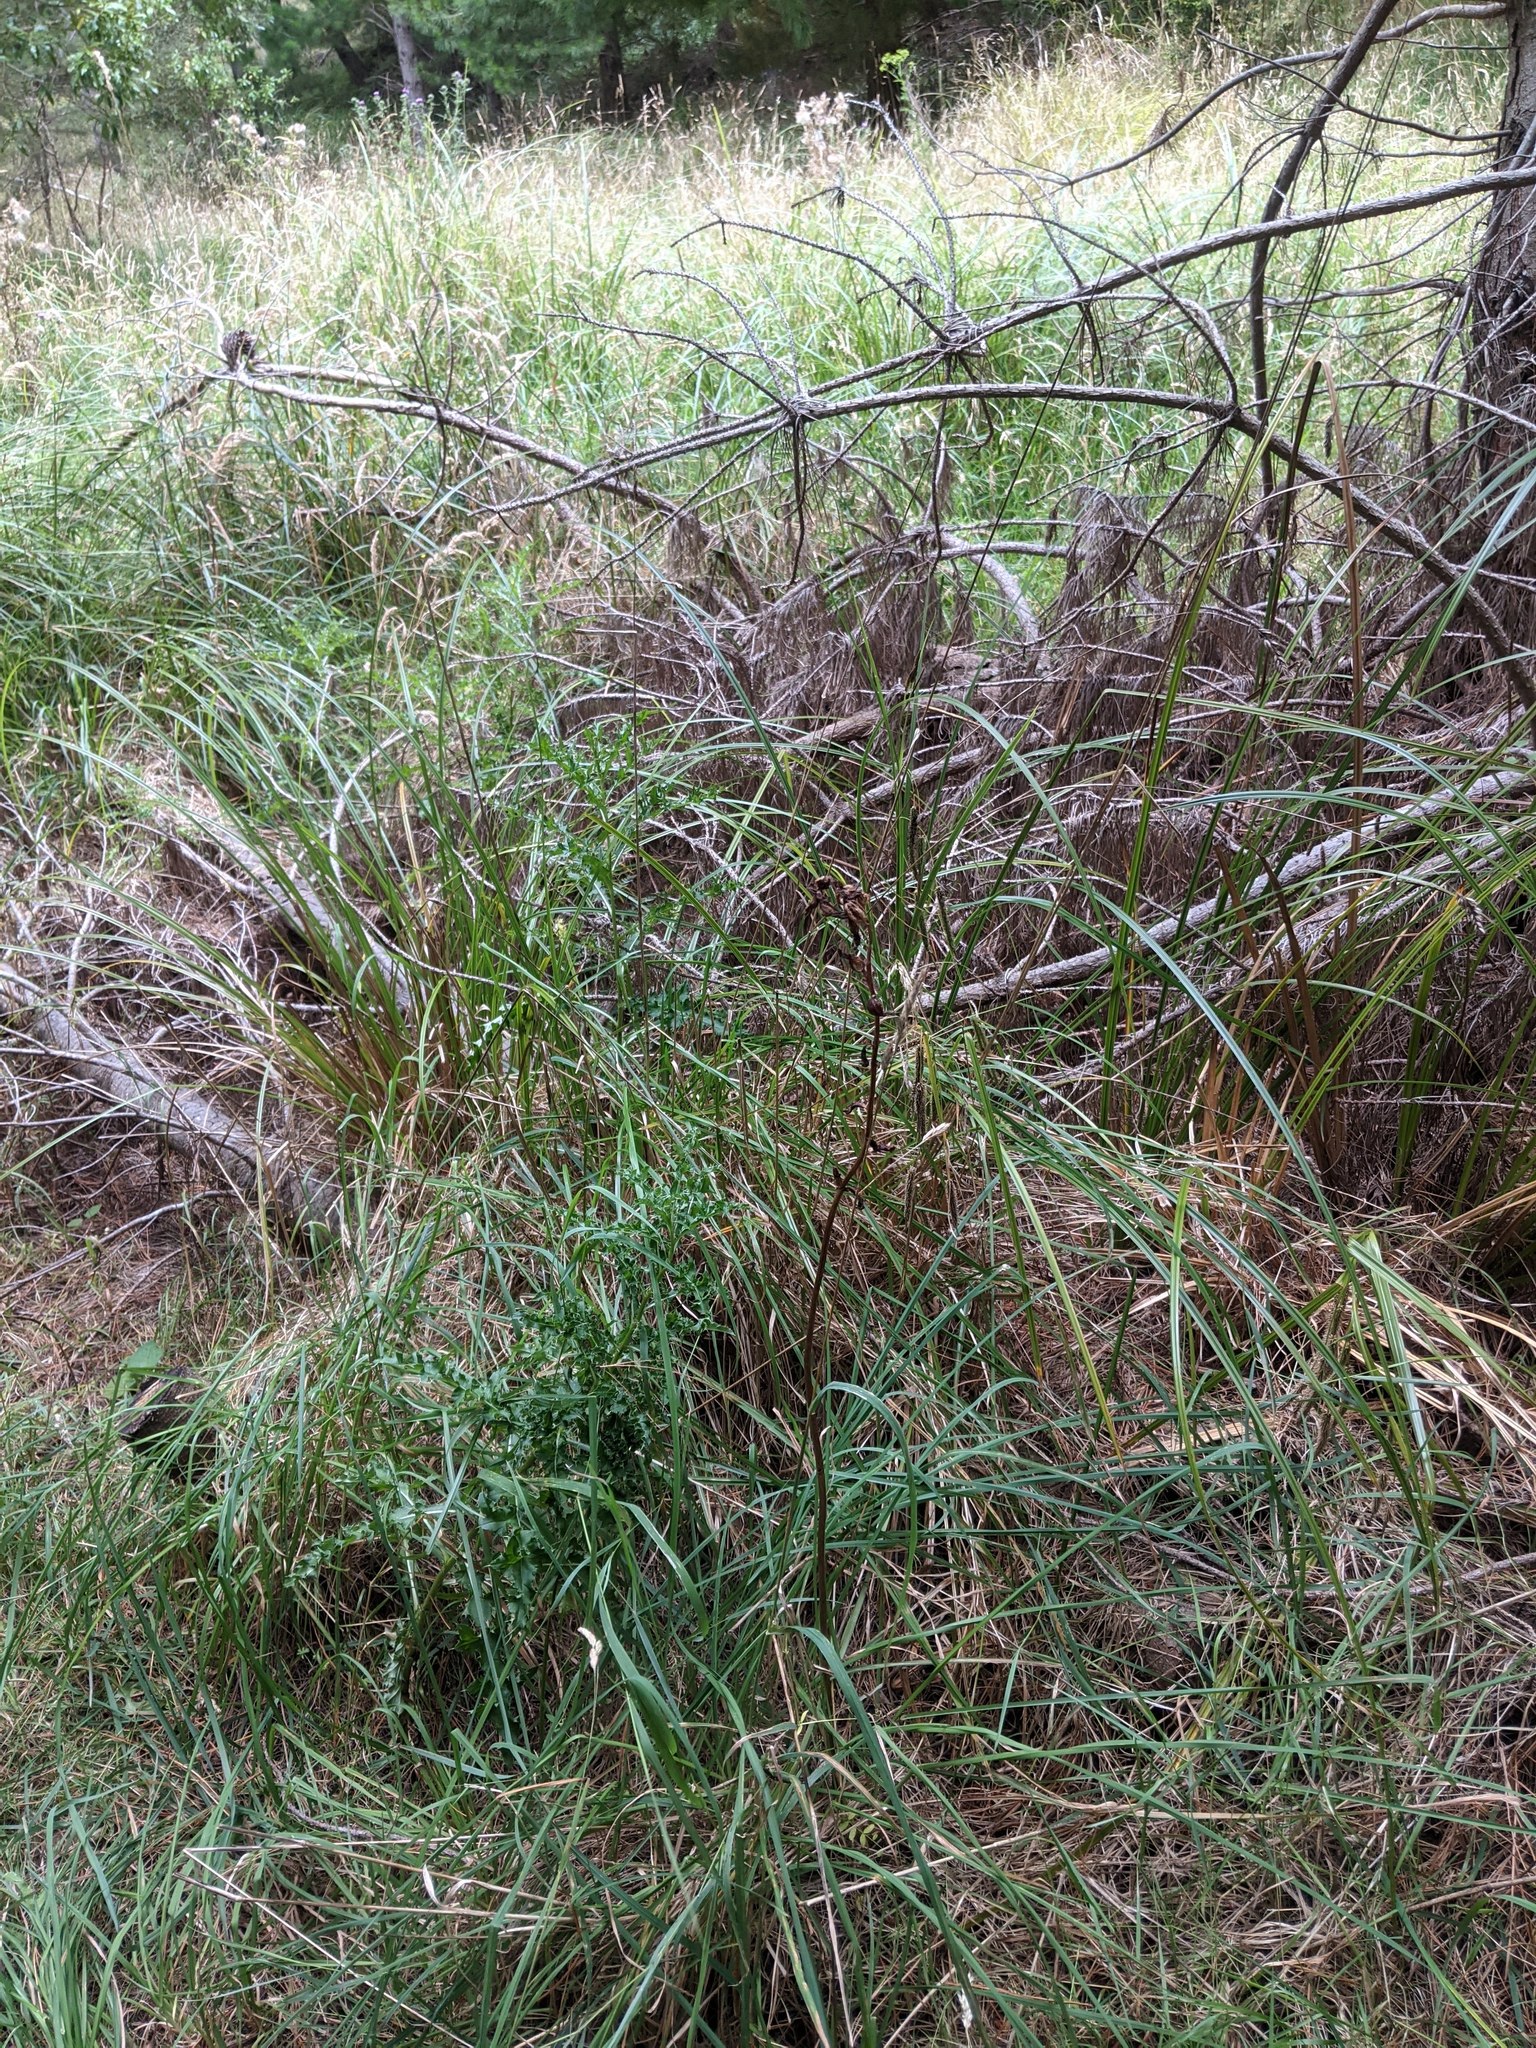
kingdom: Plantae
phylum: Tracheophyta
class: Liliopsida
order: Asparagales
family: Orchidaceae
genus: Gastrodia
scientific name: Gastrodia sesamoides
